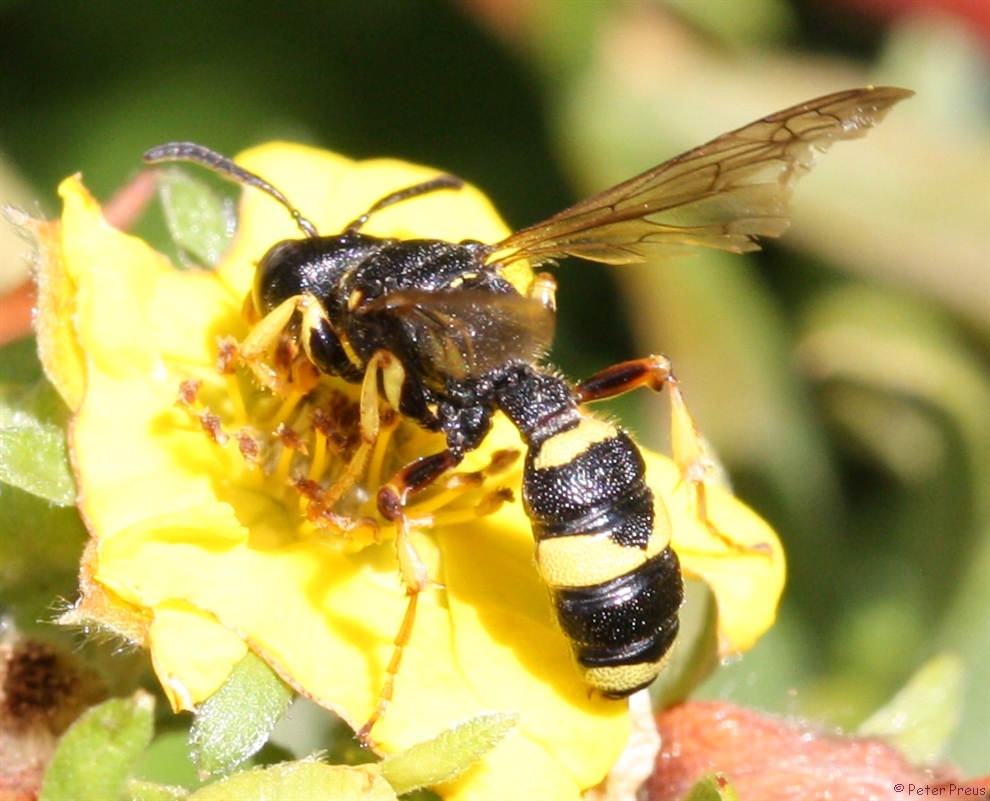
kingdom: Animalia
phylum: Arthropoda
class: Insecta
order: Hymenoptera
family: Crabronidae
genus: Cerceris
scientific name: Cerceris rybyensis
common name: Ornate tailed digger wasp
